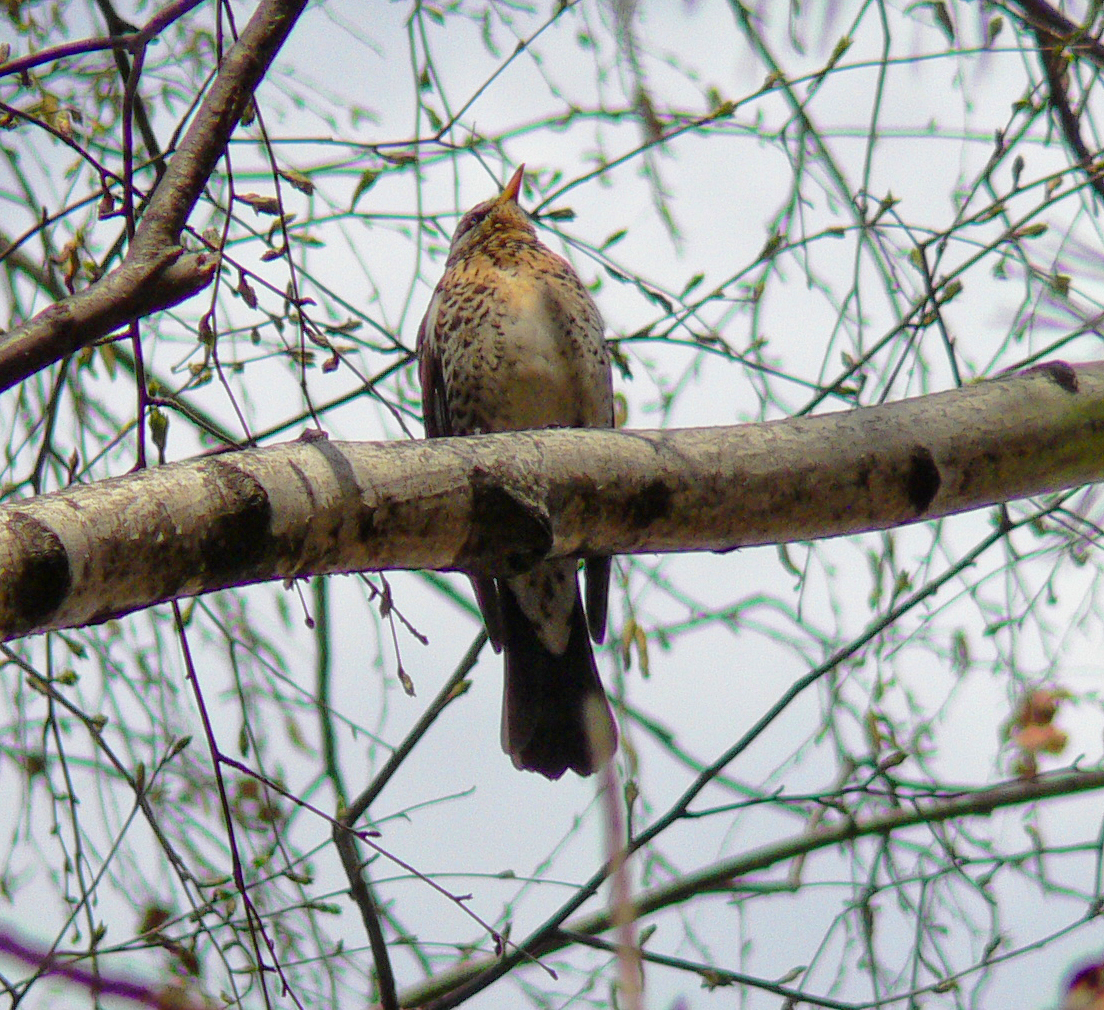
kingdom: Animalia
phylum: Chordata
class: Aves
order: Passeriformes
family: Turdidae
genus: Turdus
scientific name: Turdus pilaris
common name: Fieldfare
